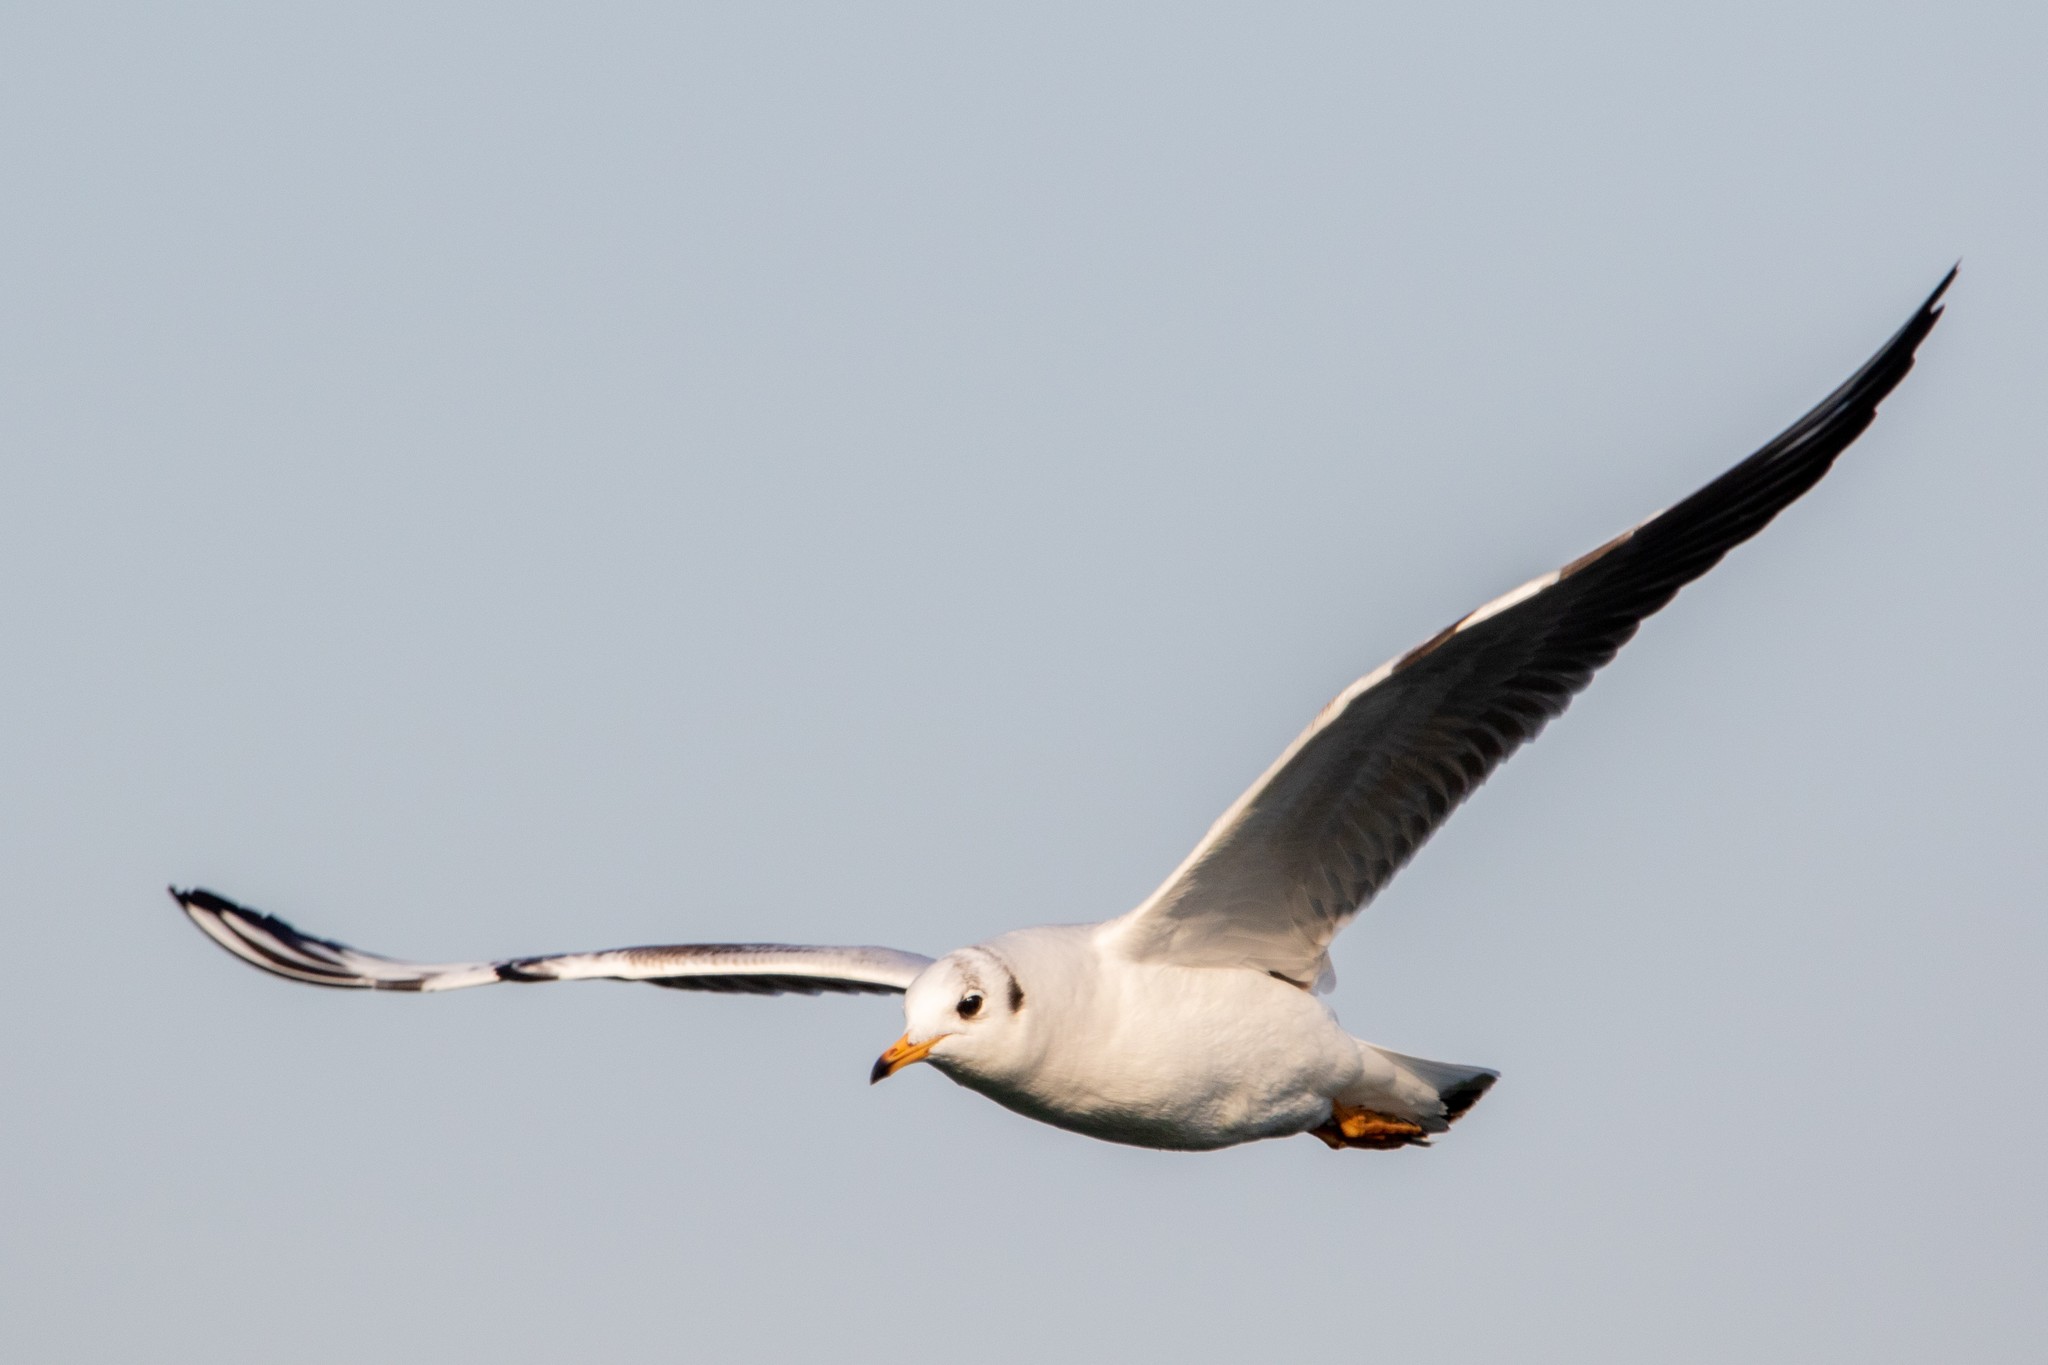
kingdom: Animalia
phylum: Chordata
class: Aves
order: Charadriiformes
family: Laridae
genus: Chroicocephalus
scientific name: Chroicocephalus ridibundus
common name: Black-headed gull
